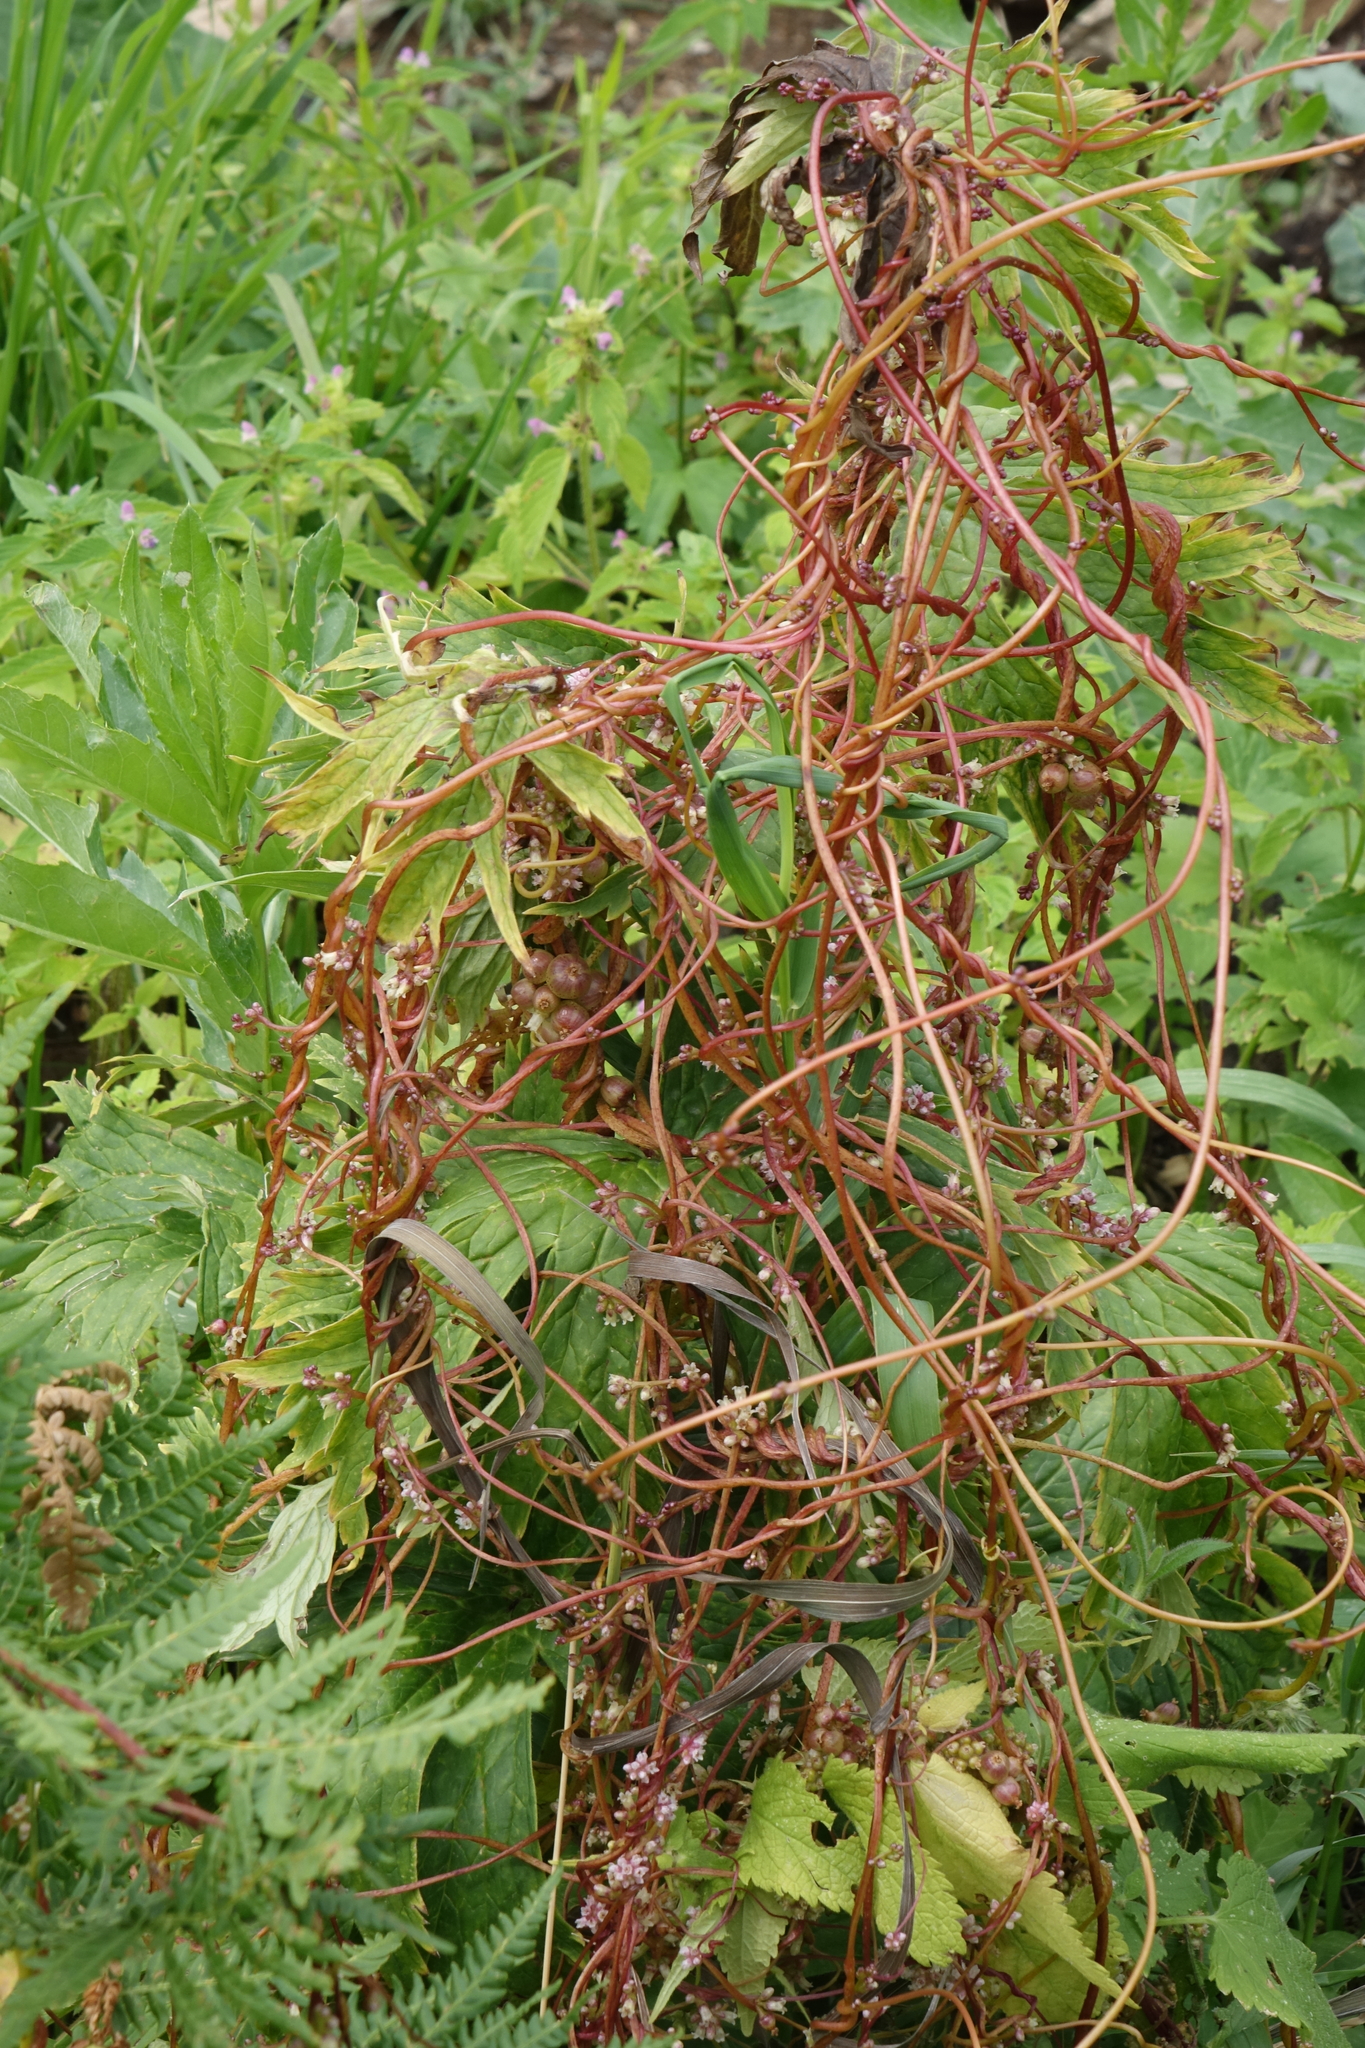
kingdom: Plantae
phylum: Tracheophyta
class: Magnoliopsida
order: Solanales
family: Convolvulaceae
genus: Cuscuta
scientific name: Cuscuta europaea
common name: Greater dodder
